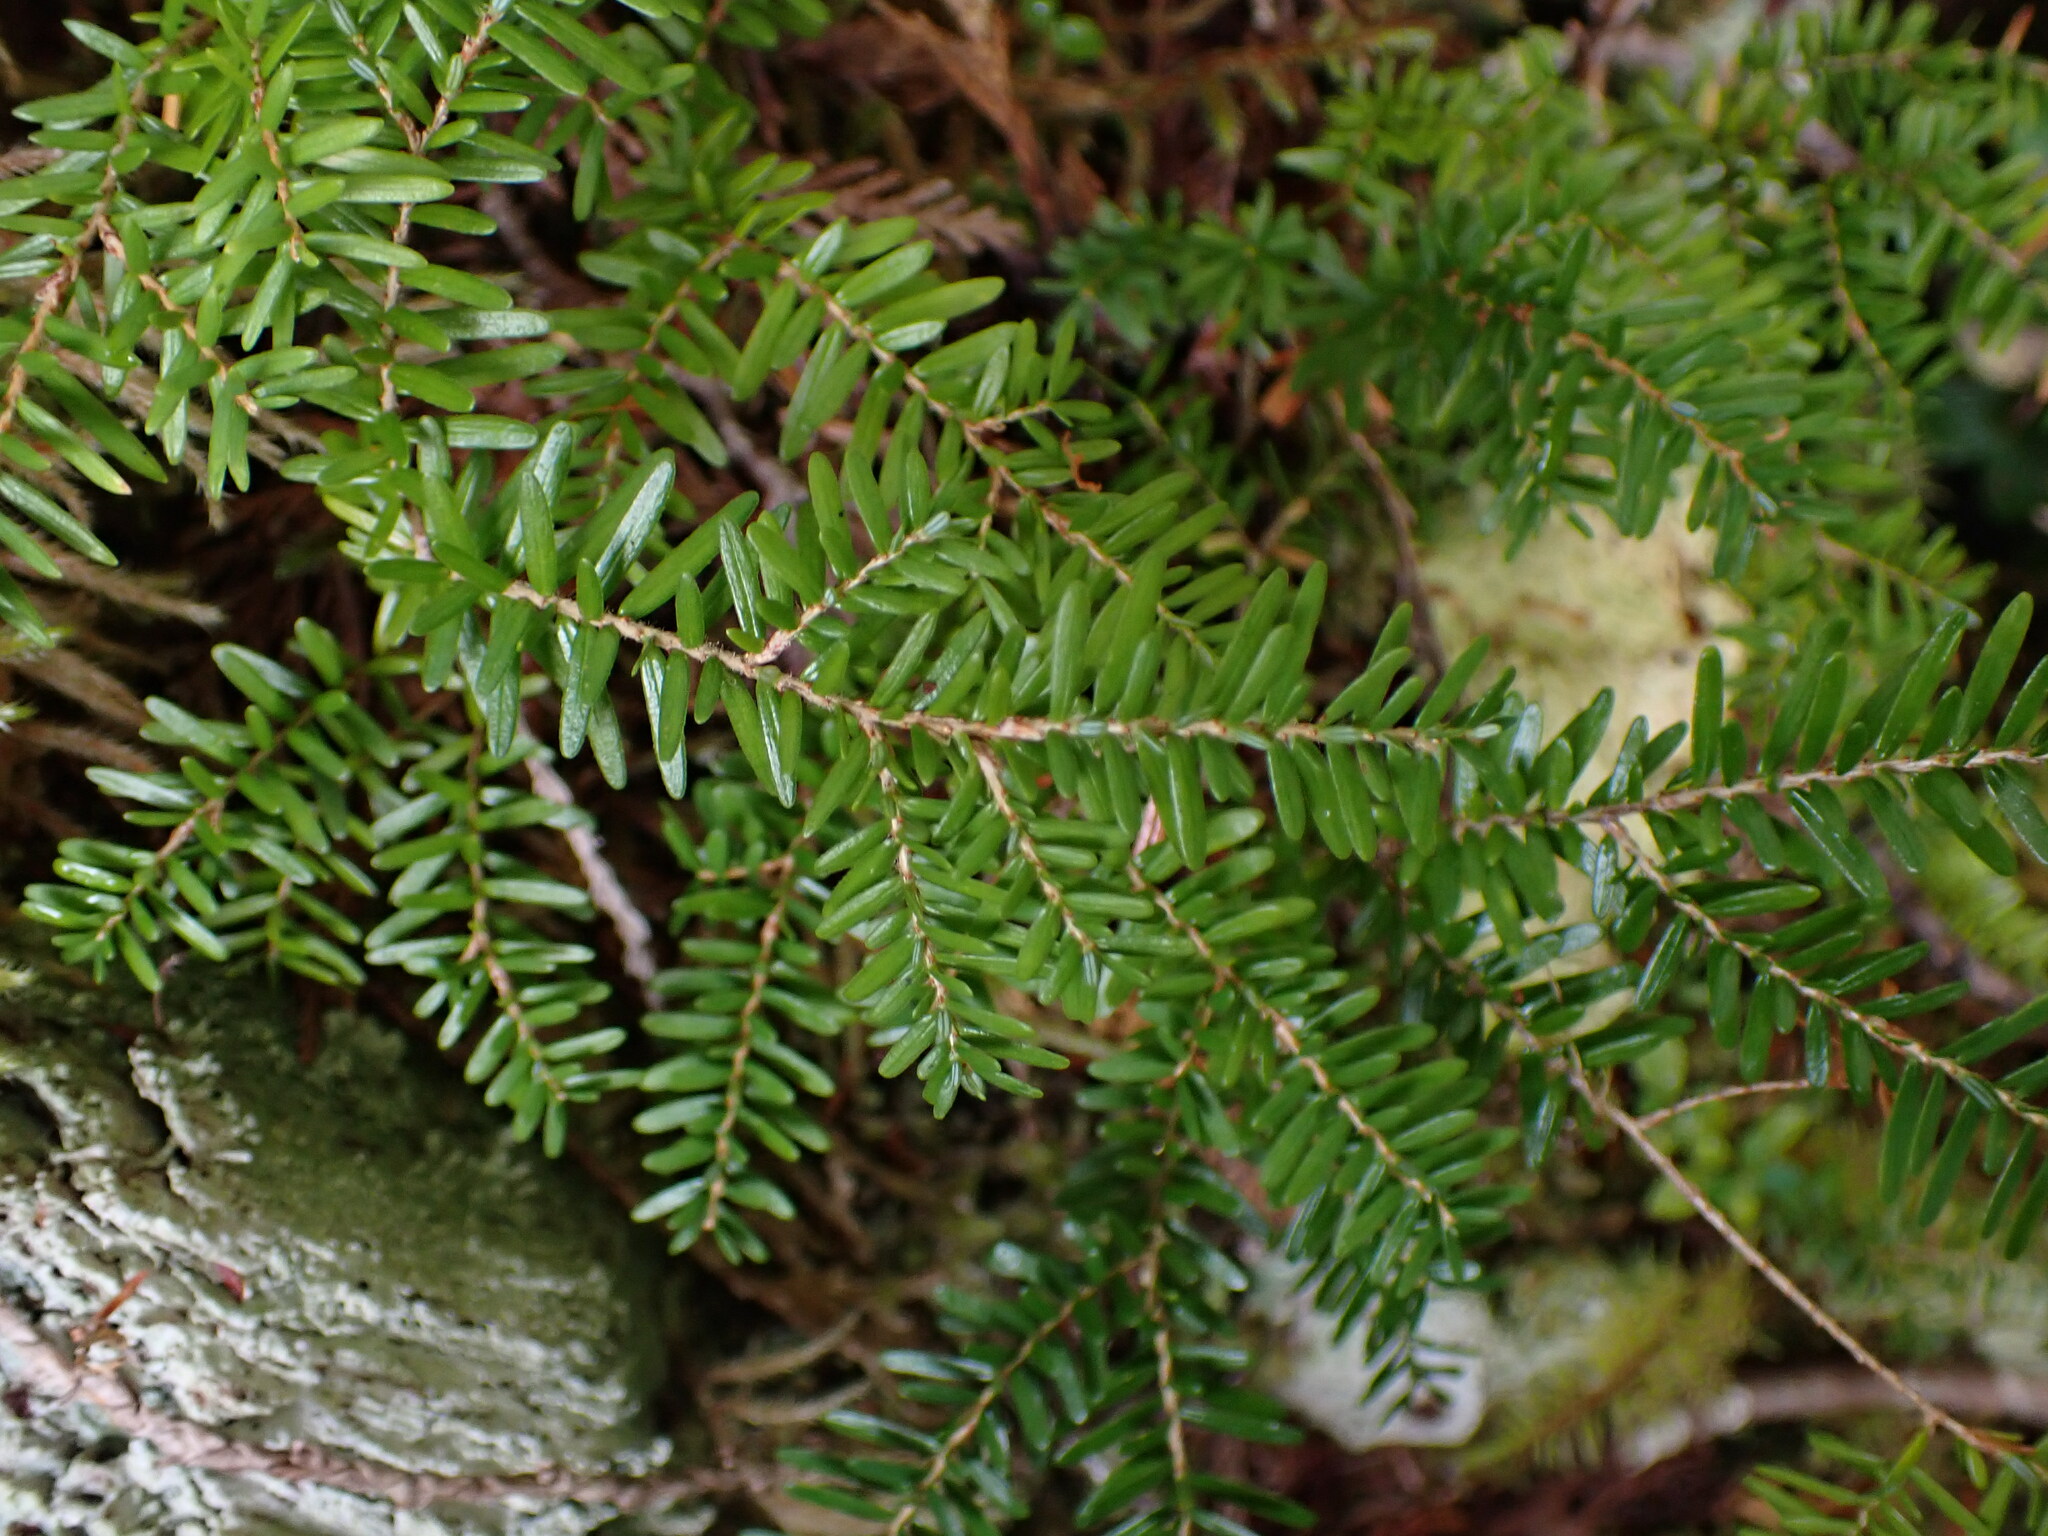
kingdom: Plantae
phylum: Tracheophyta
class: Pinopsida
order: Pinales
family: Pinaceae
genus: Tsuga
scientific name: Tsuga heterophylla
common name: Western hemlock
